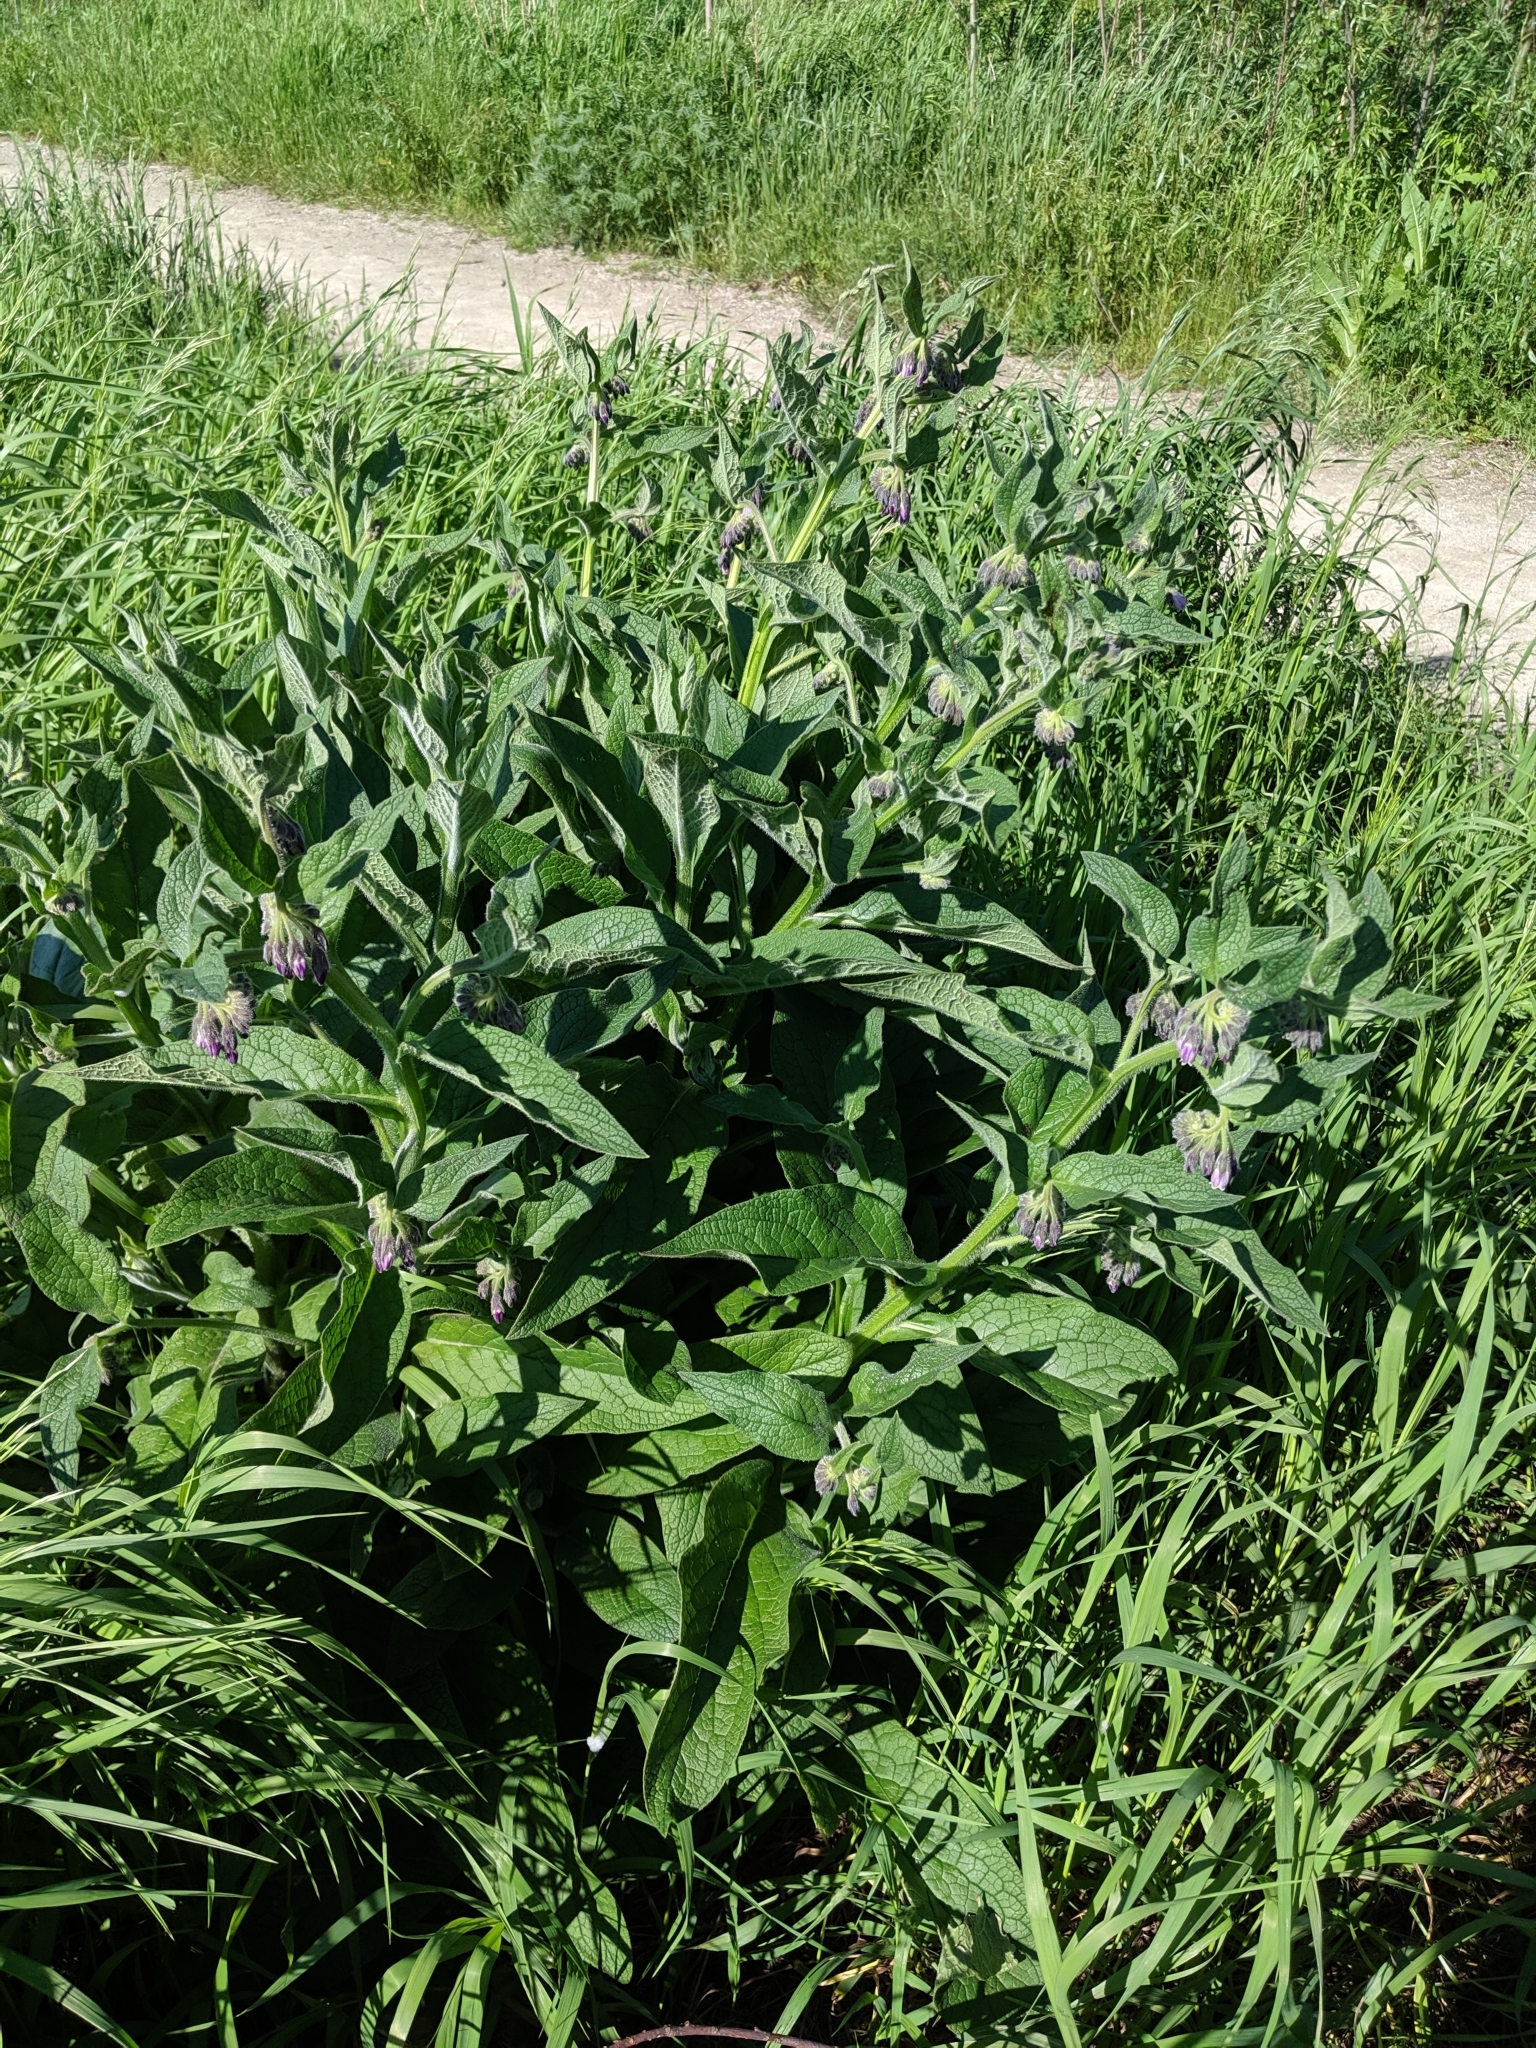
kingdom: Plantae
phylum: Tracheophyta
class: Magnoliopsida
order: Boraginales
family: Boraginaceae
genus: Symphytum
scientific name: Symphytum officinale
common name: Common comfrey
